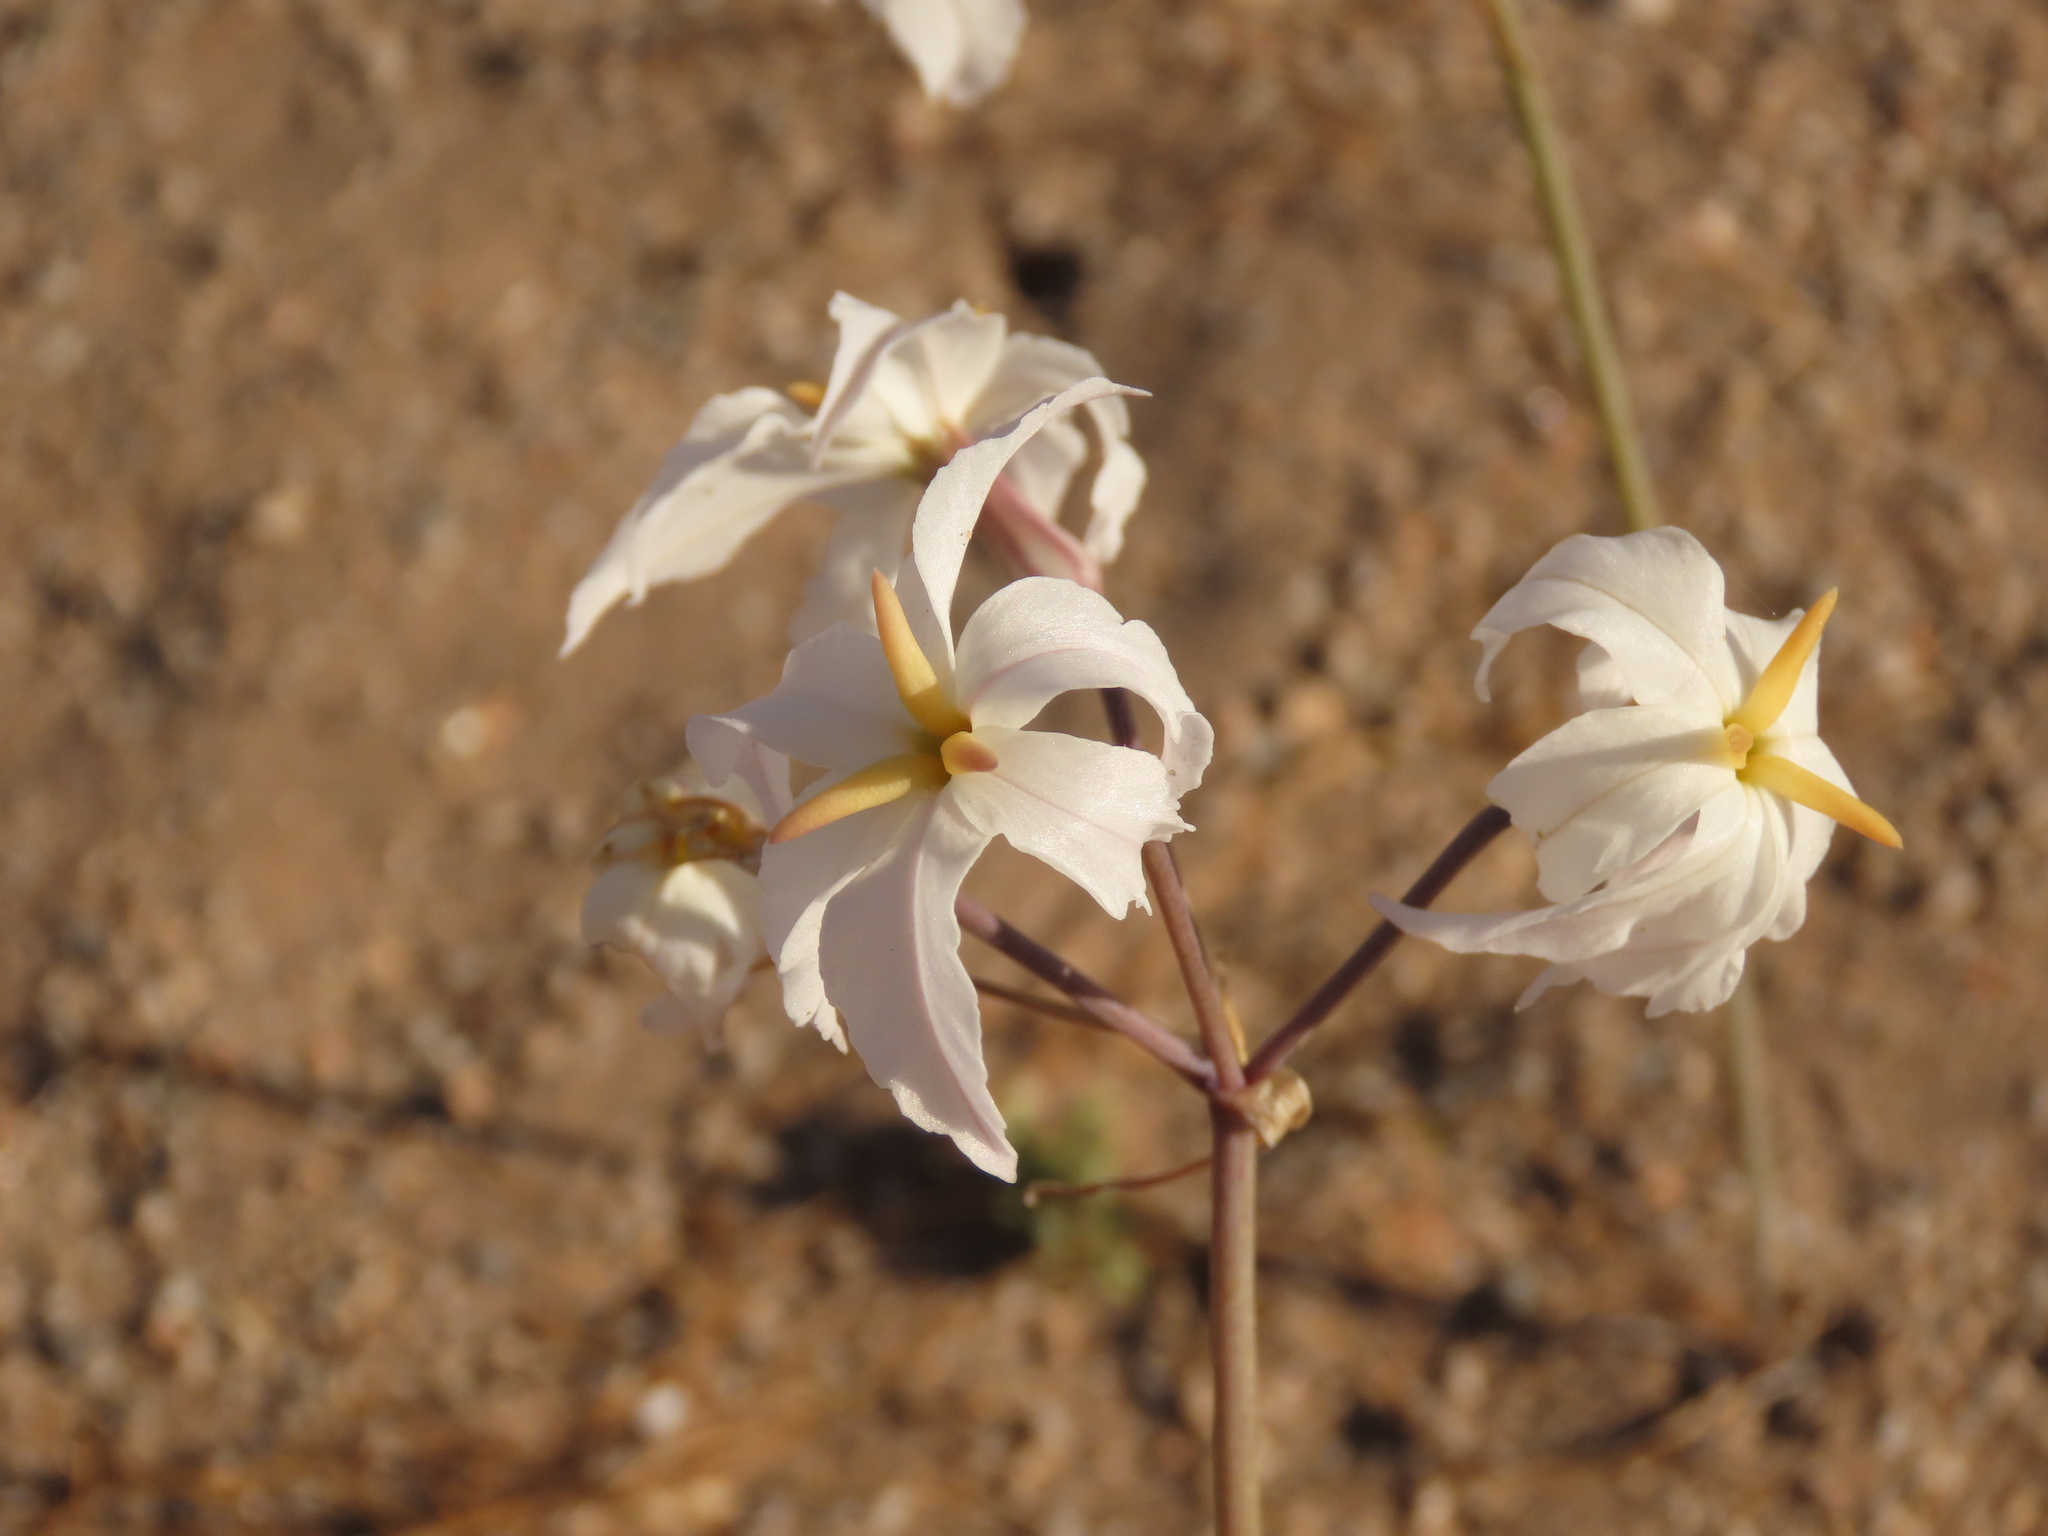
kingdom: Plantae
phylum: Tracheophyta
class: Liliopsida
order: Asparagales
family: Amaryllidaceae
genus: Leucocoryne
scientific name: Leucocoryne appendiculata
